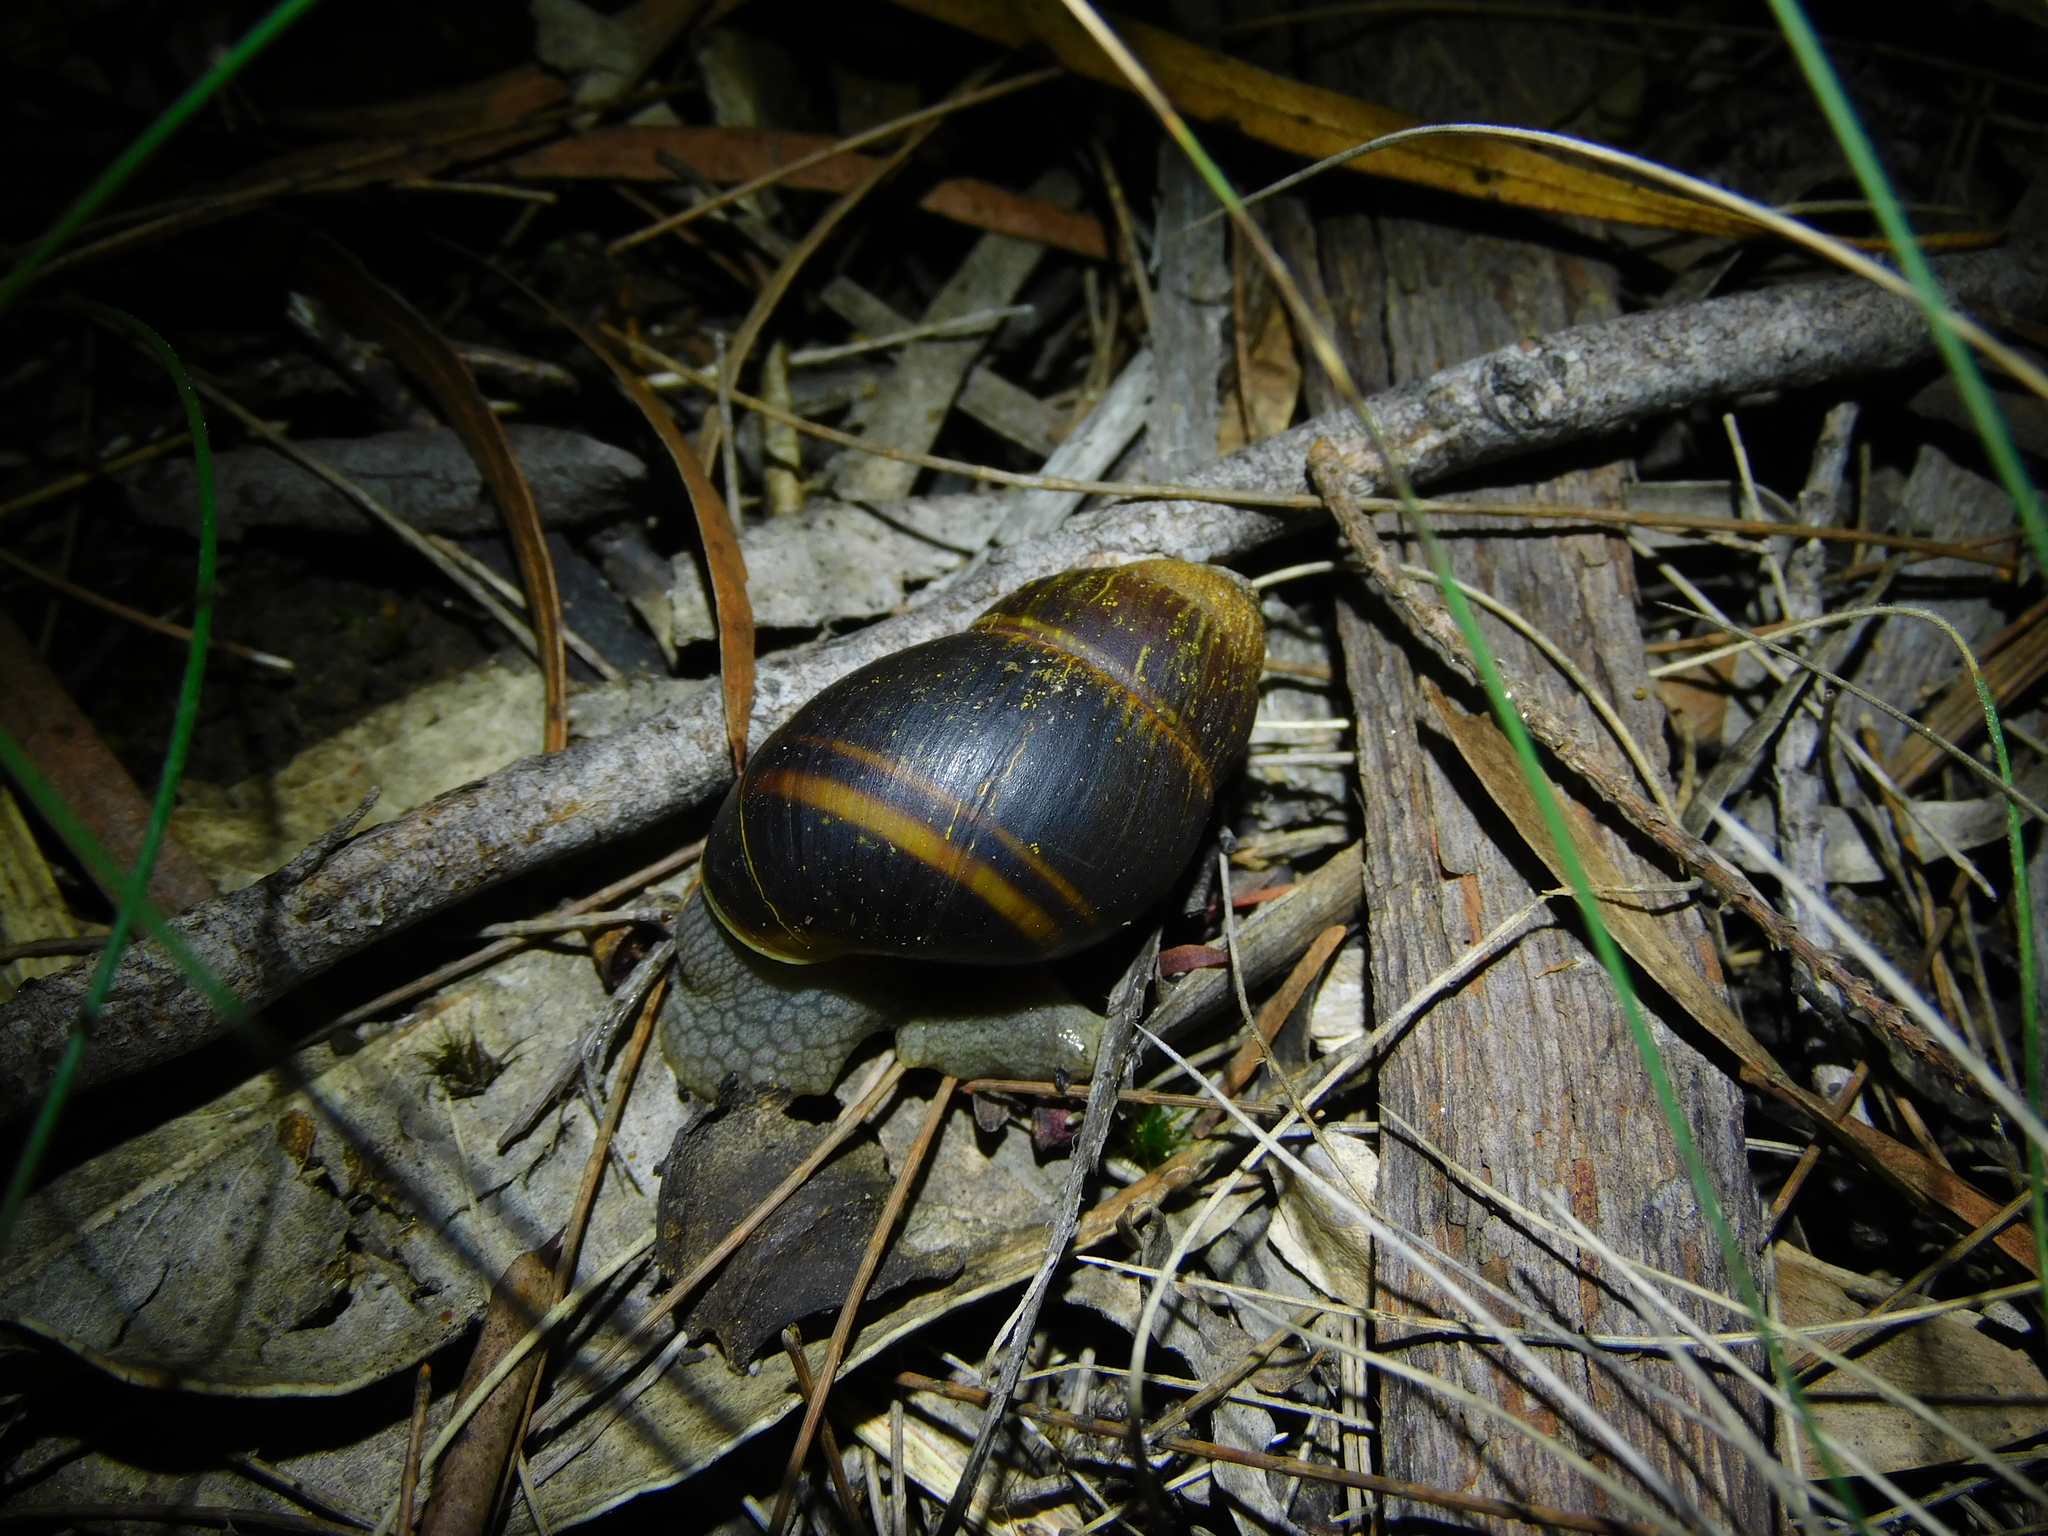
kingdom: Animalia
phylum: Mollusca
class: Gastropoda
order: Stylommatophora
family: Caryodidae
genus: Caryodes
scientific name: Caryodes dufresnii
